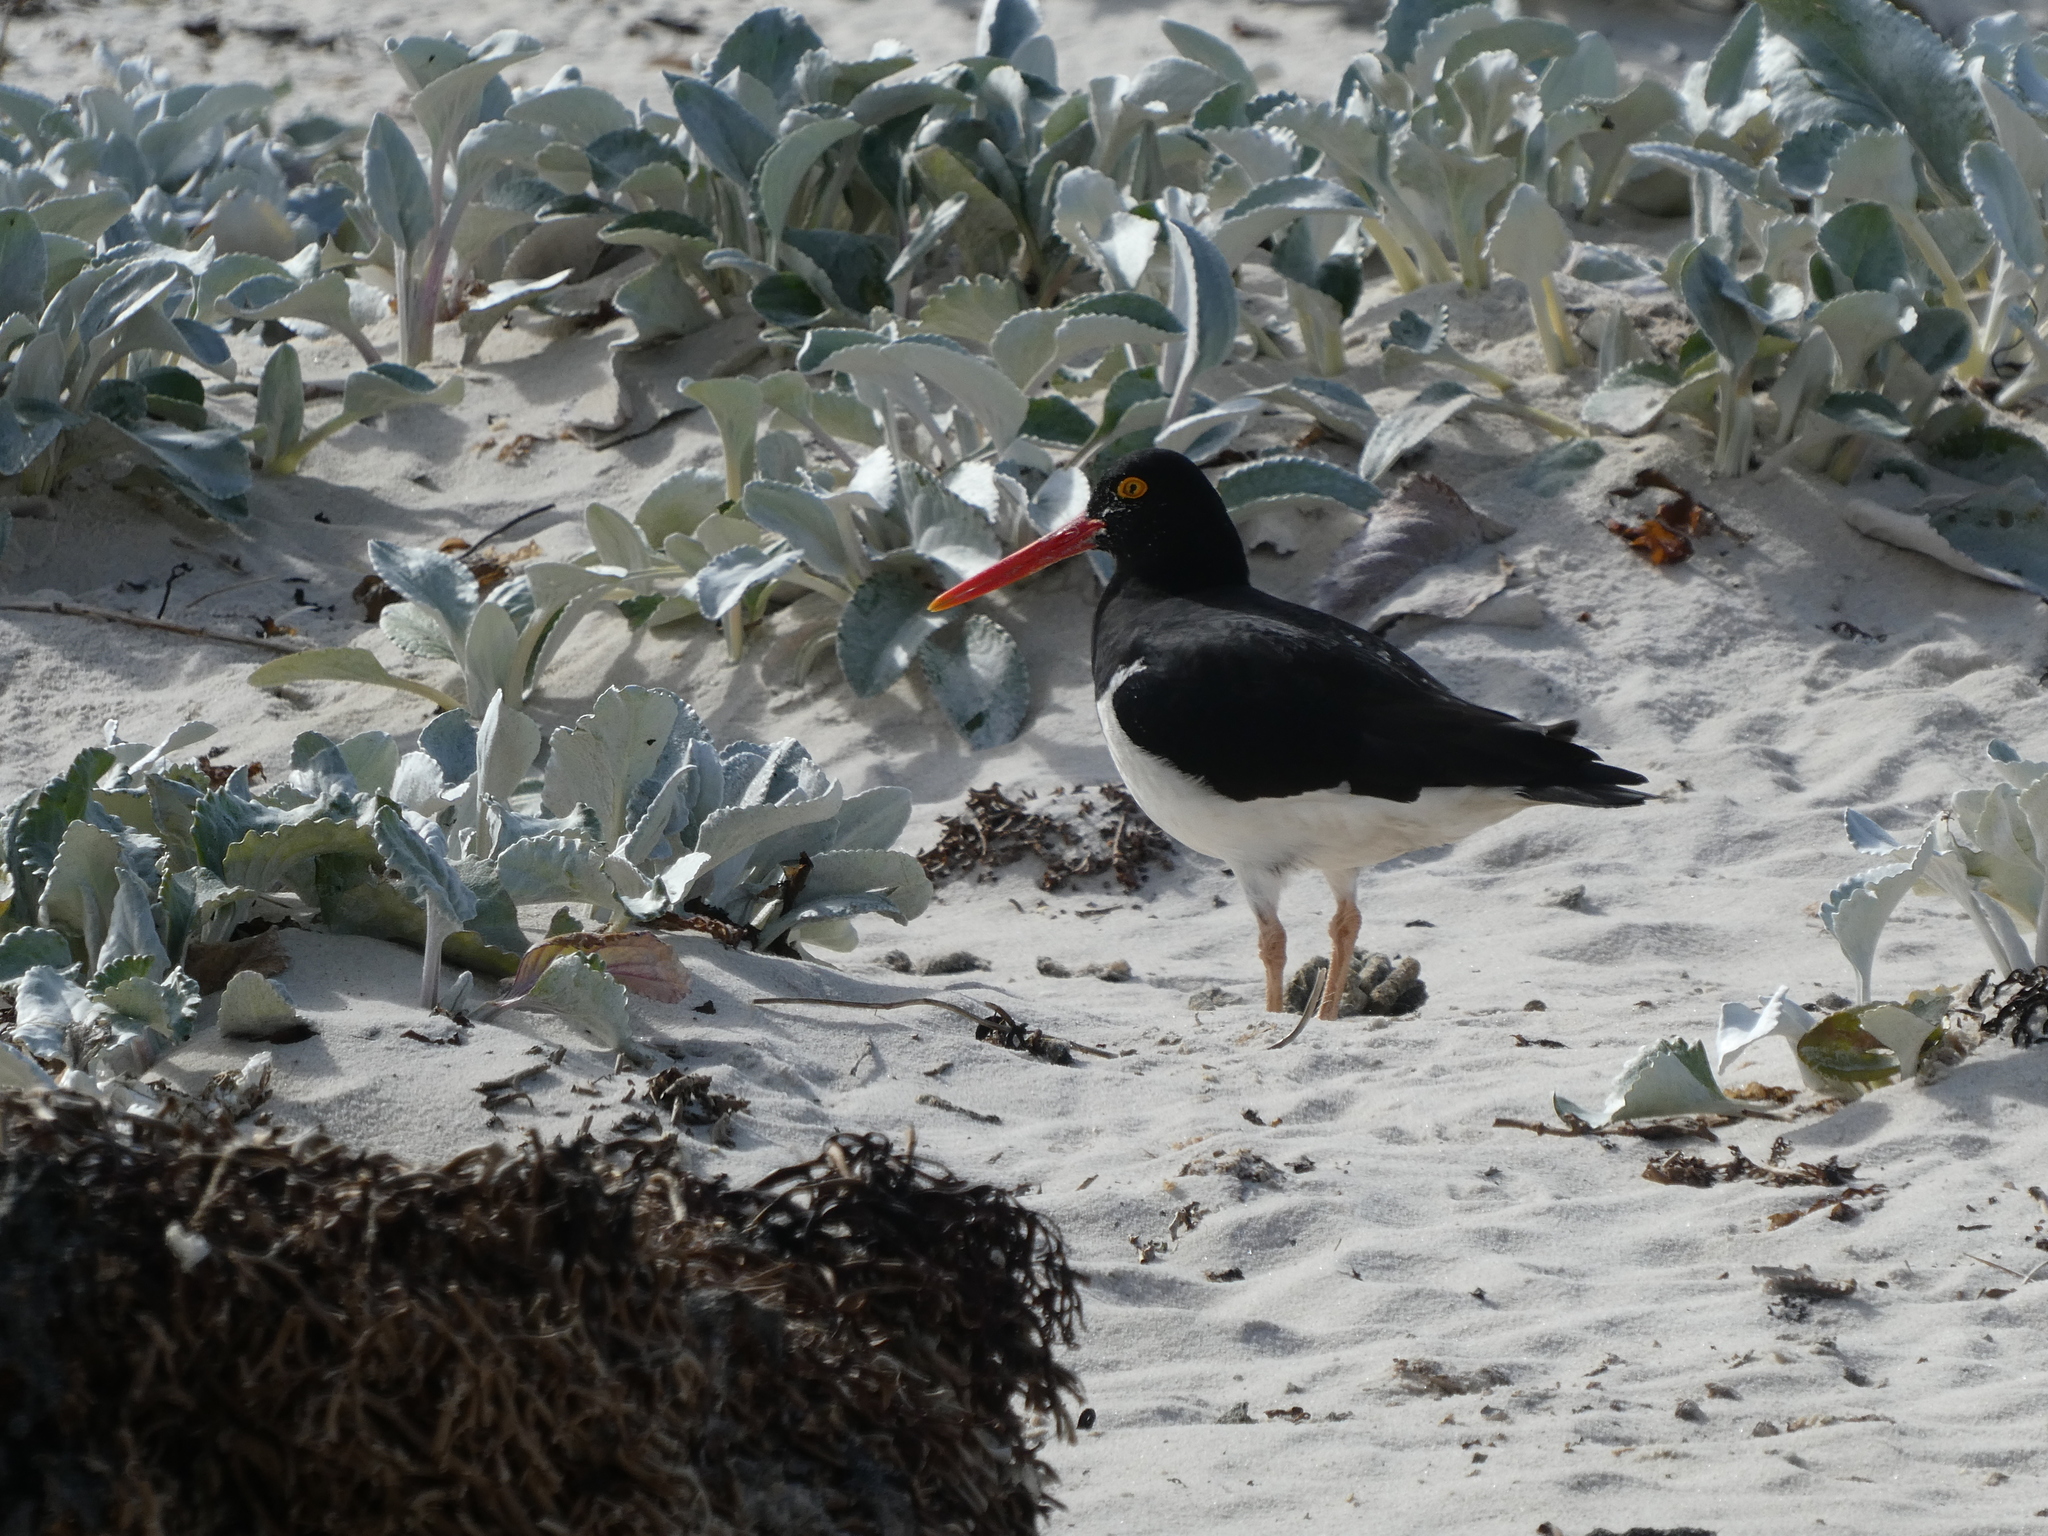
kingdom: Animalia
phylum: Chordata
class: Aves
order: Charadriiformes
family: Haematopodidae
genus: Haematopus
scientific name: Haematopus leucopodus
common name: Magellanic oystercatcher
